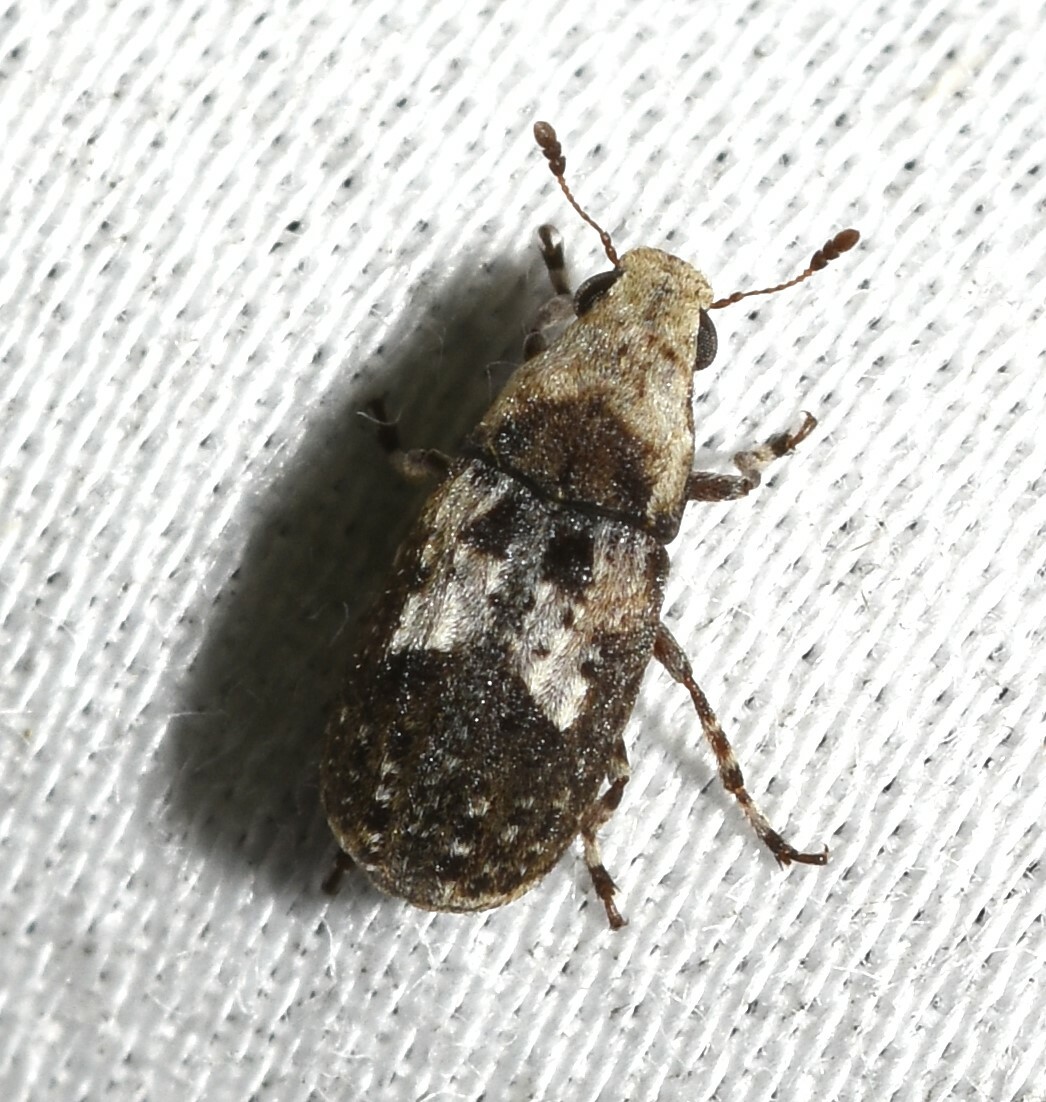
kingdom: Animalia
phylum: Arthropoda
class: Insecta
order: Coleoptera
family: Anthribidae
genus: Euparius
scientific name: Euparius paganus
